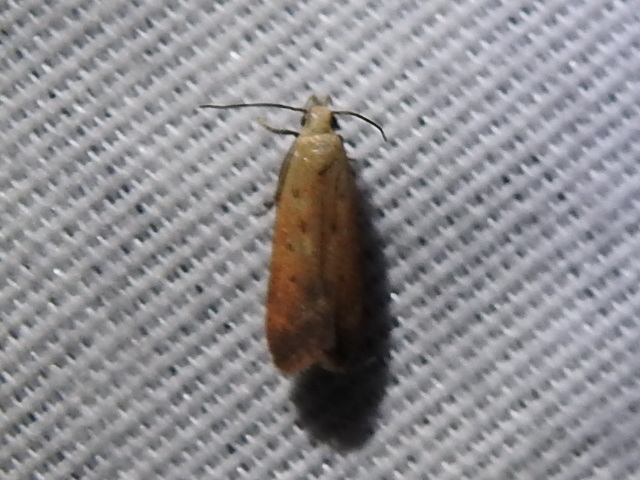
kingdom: Animalia
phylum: Arthropoda
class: Insecta
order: Lepidoptera
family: Gelechiidae
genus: Anacampsis
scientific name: Anacampsis fullonella
